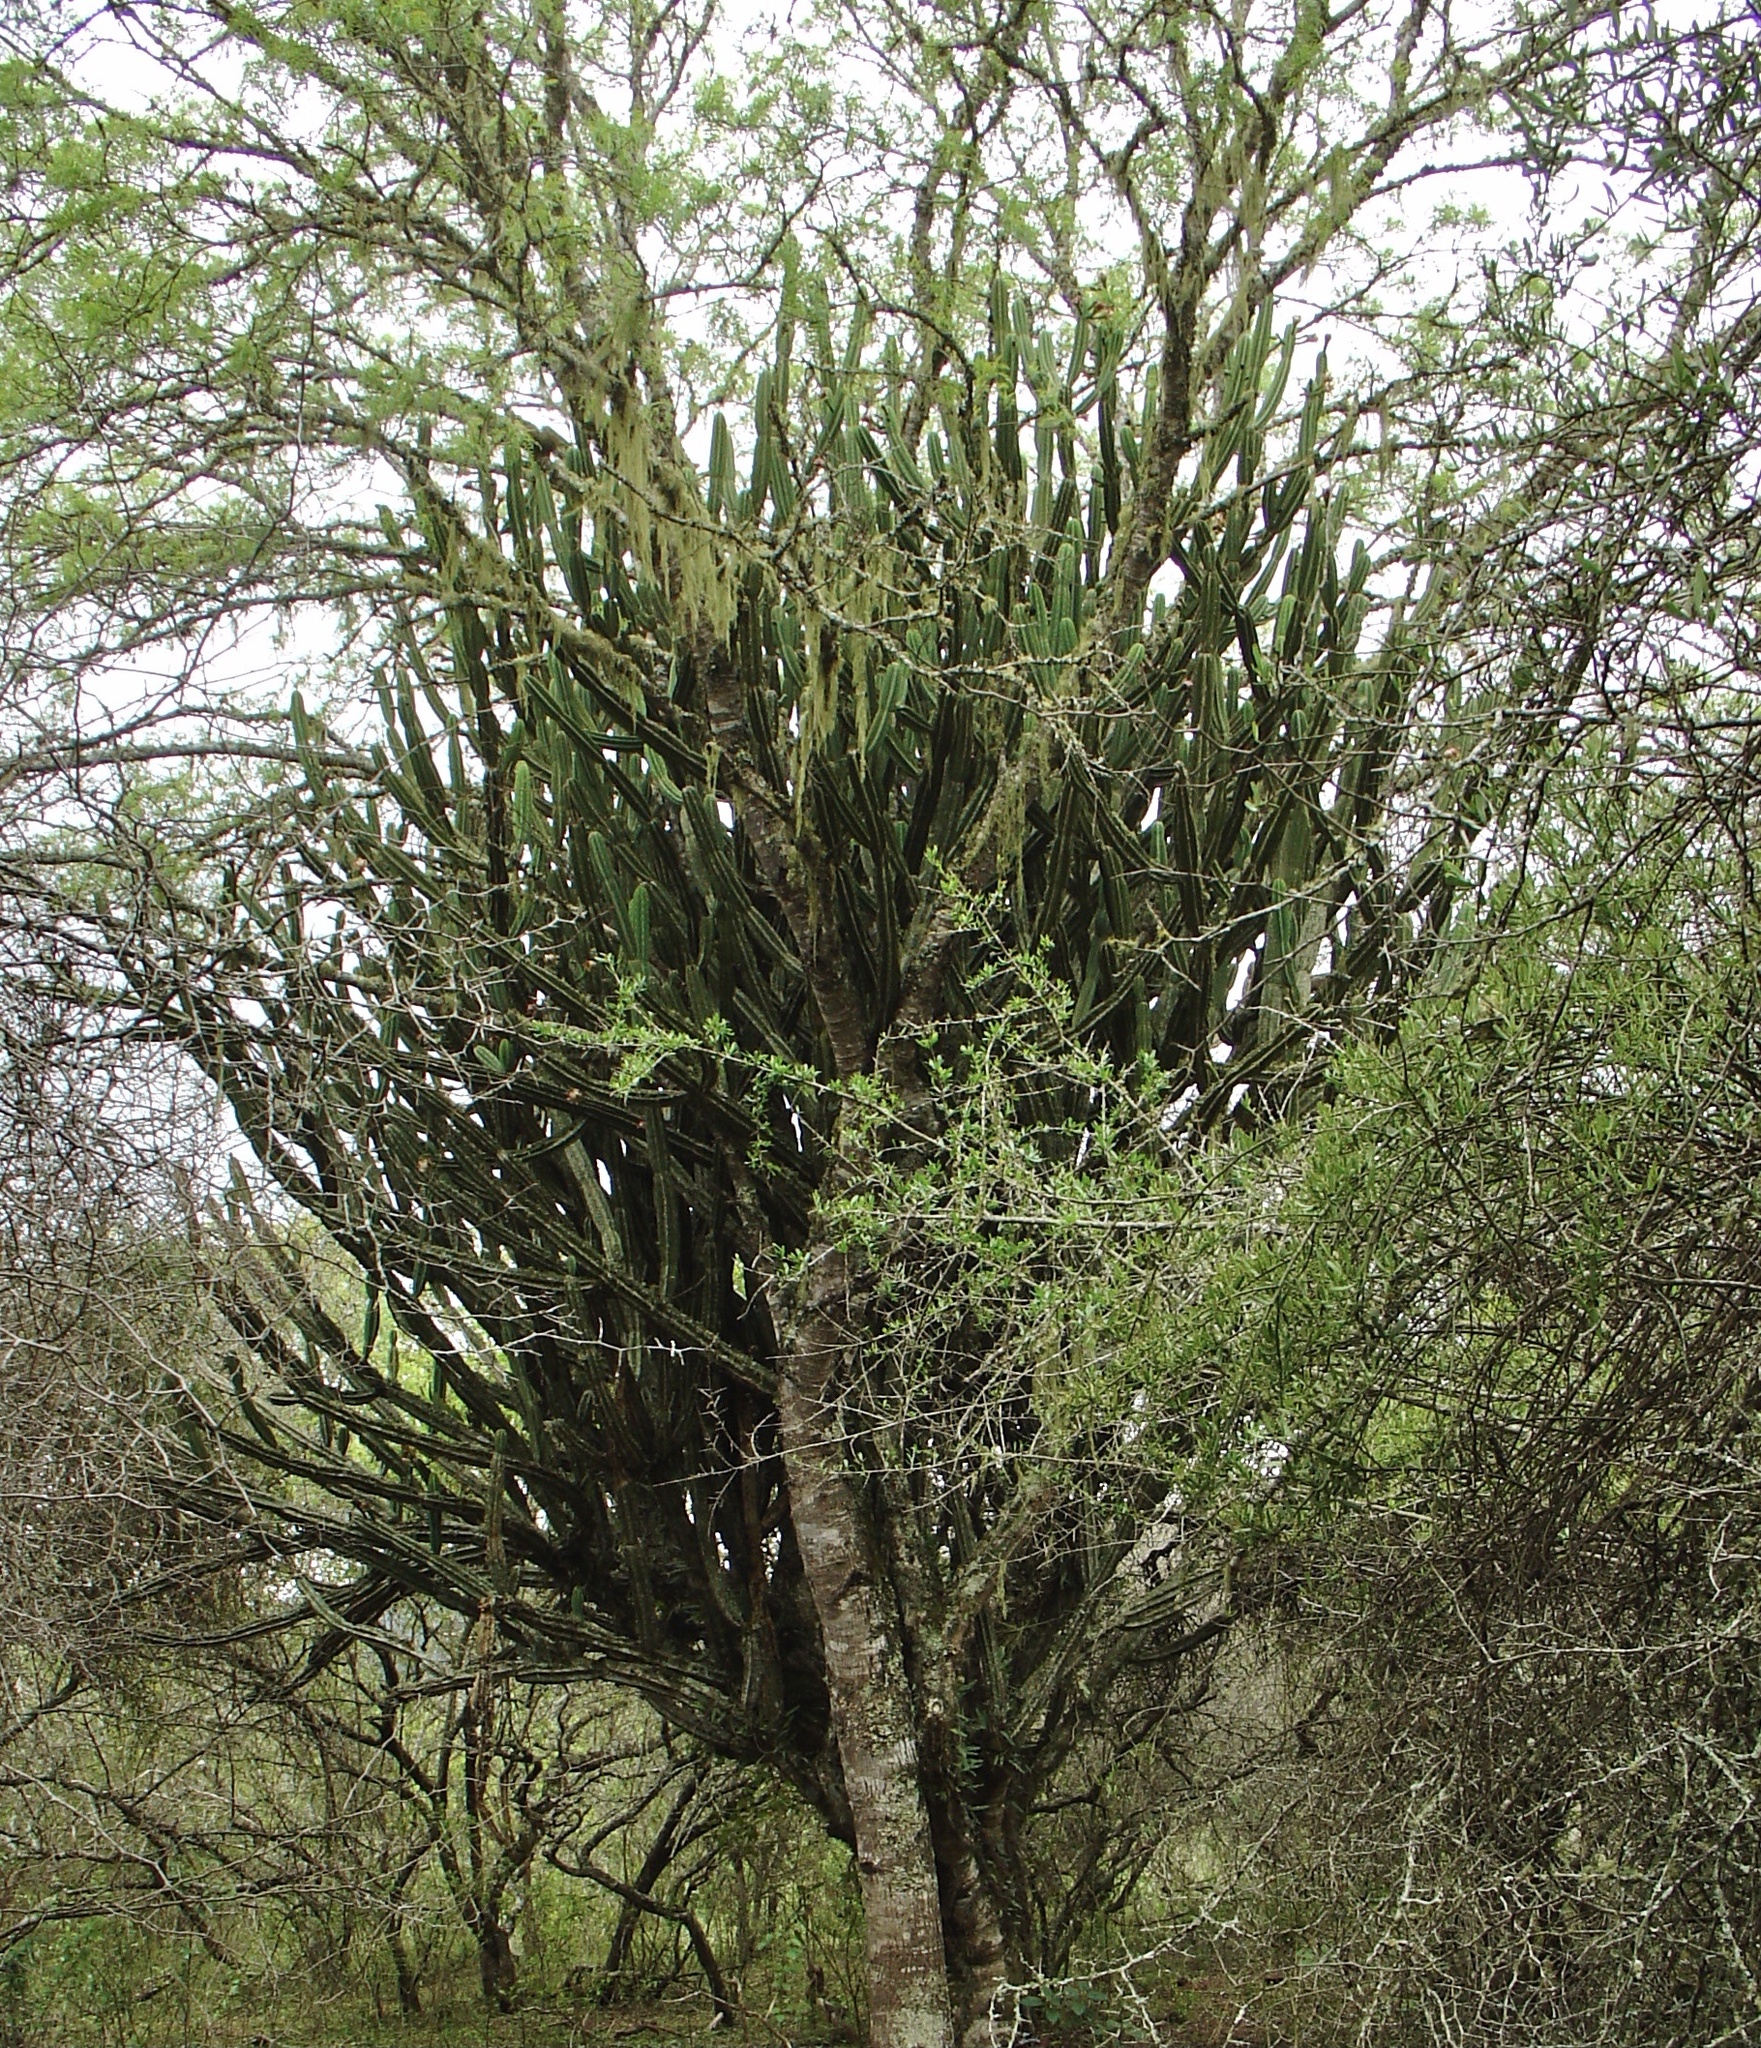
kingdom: Plantae
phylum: Tracheophyta
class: Magnoliopsida
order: Caryophyllales
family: Cactaceae
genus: Cereus
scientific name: Cereus hankeanus
